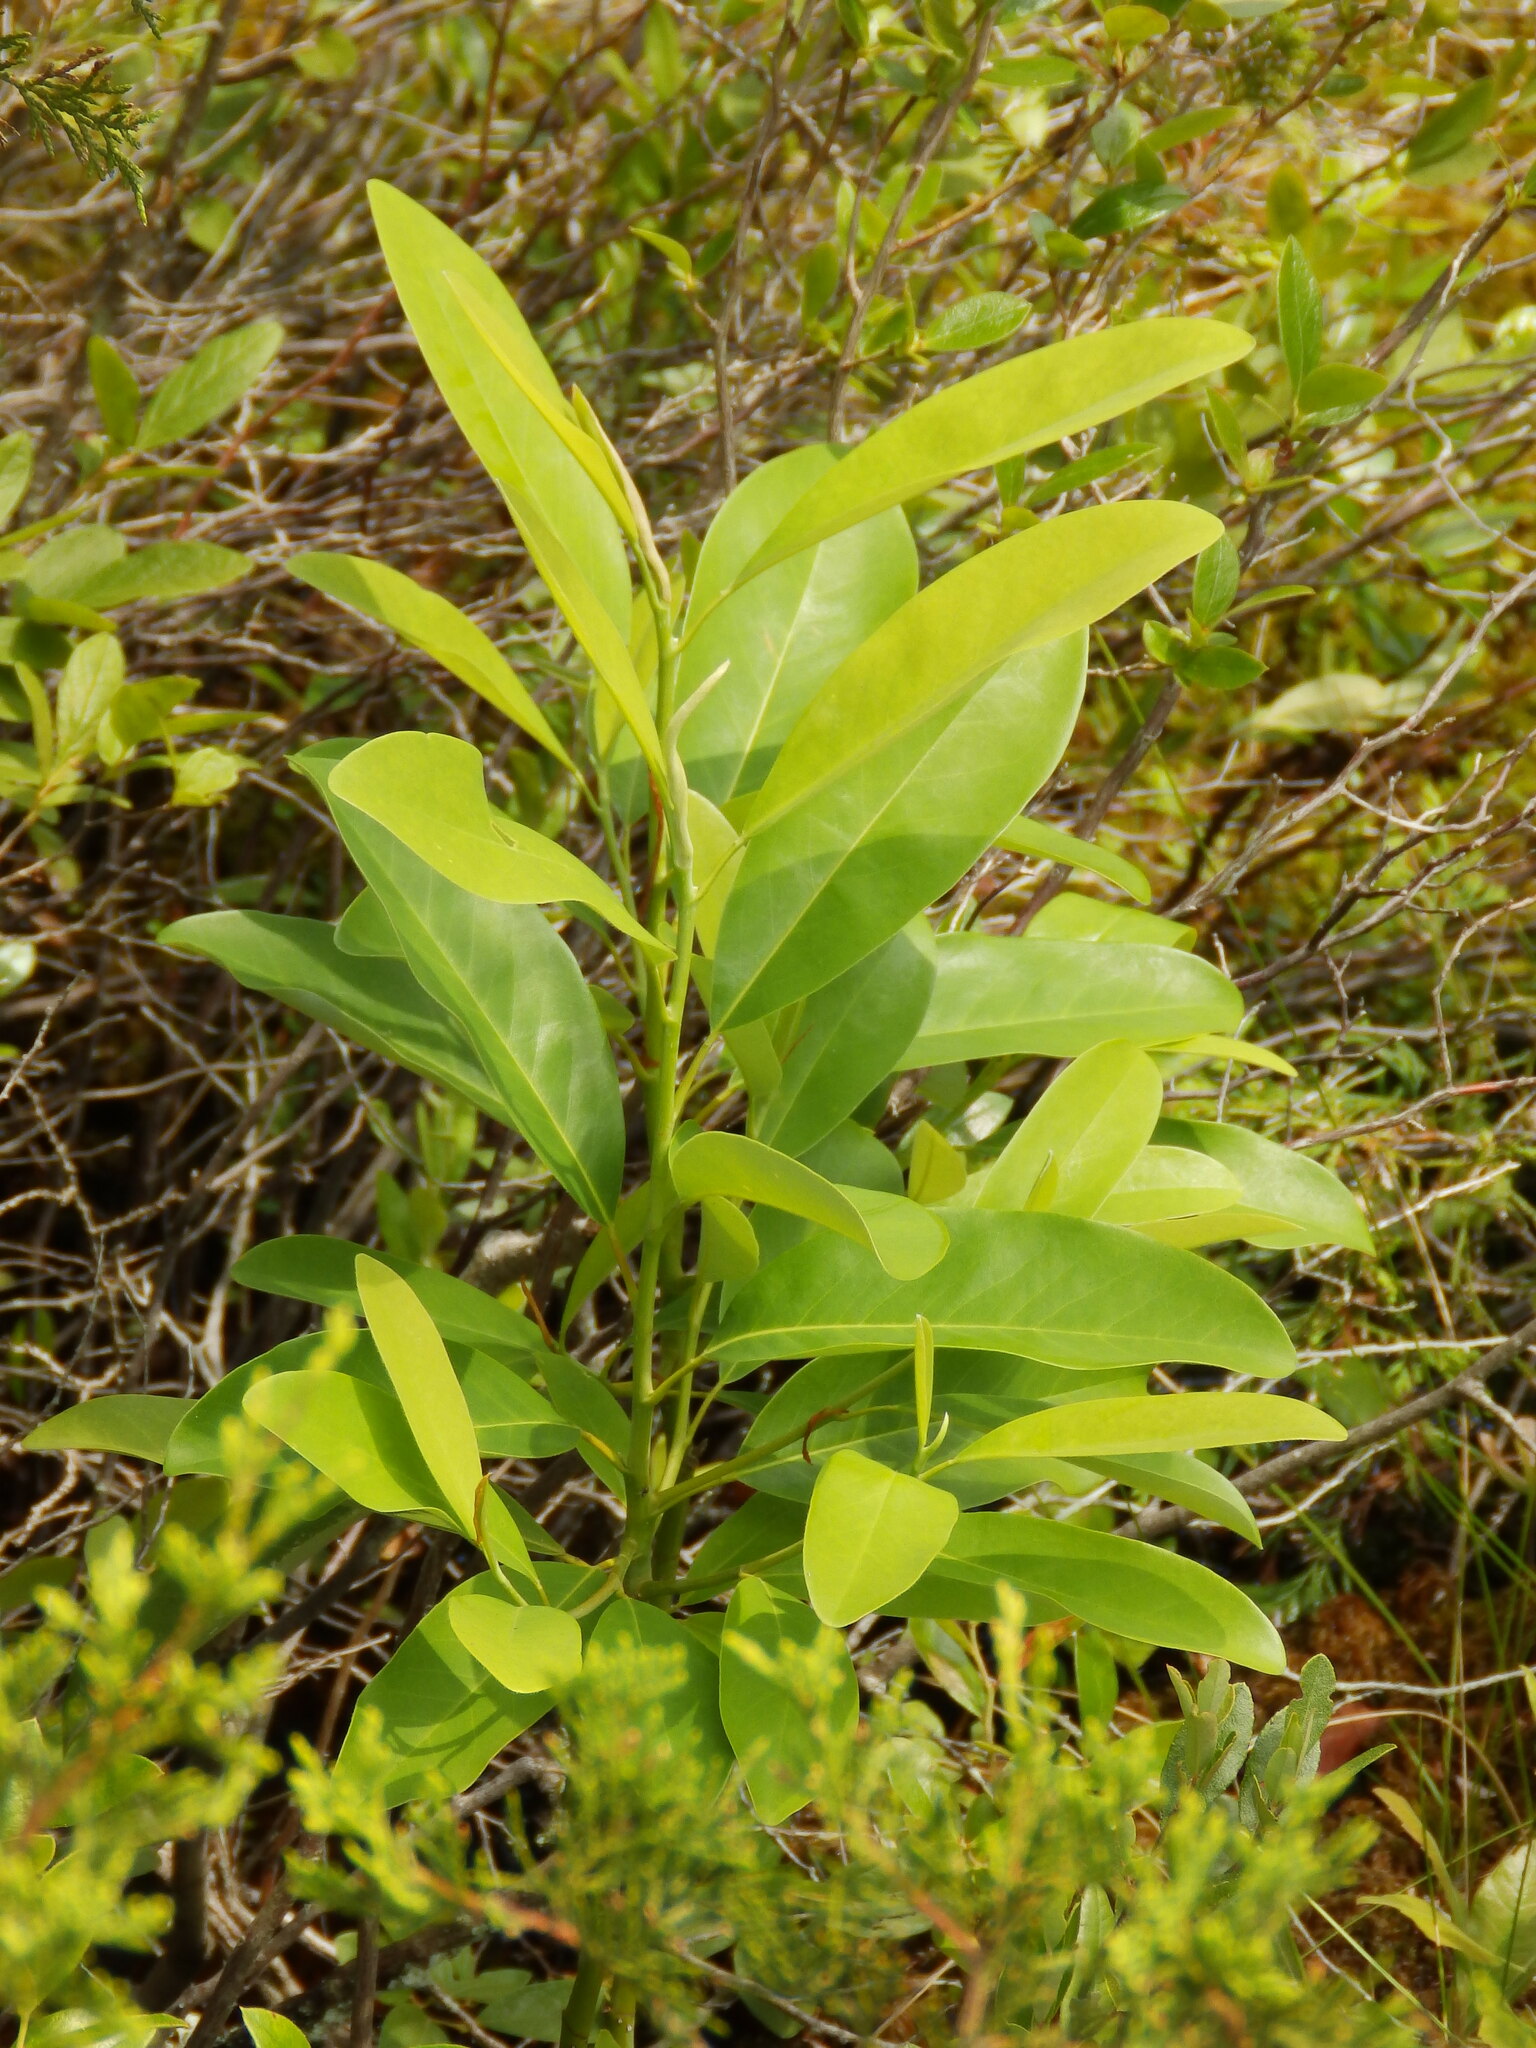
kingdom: Plantae
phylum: Tracheophyta
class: Magnoliopsida
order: Magnoliales
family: Magnoliaceae
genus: Magnolia
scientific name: Magnolia virginiana
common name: Swamp bay
